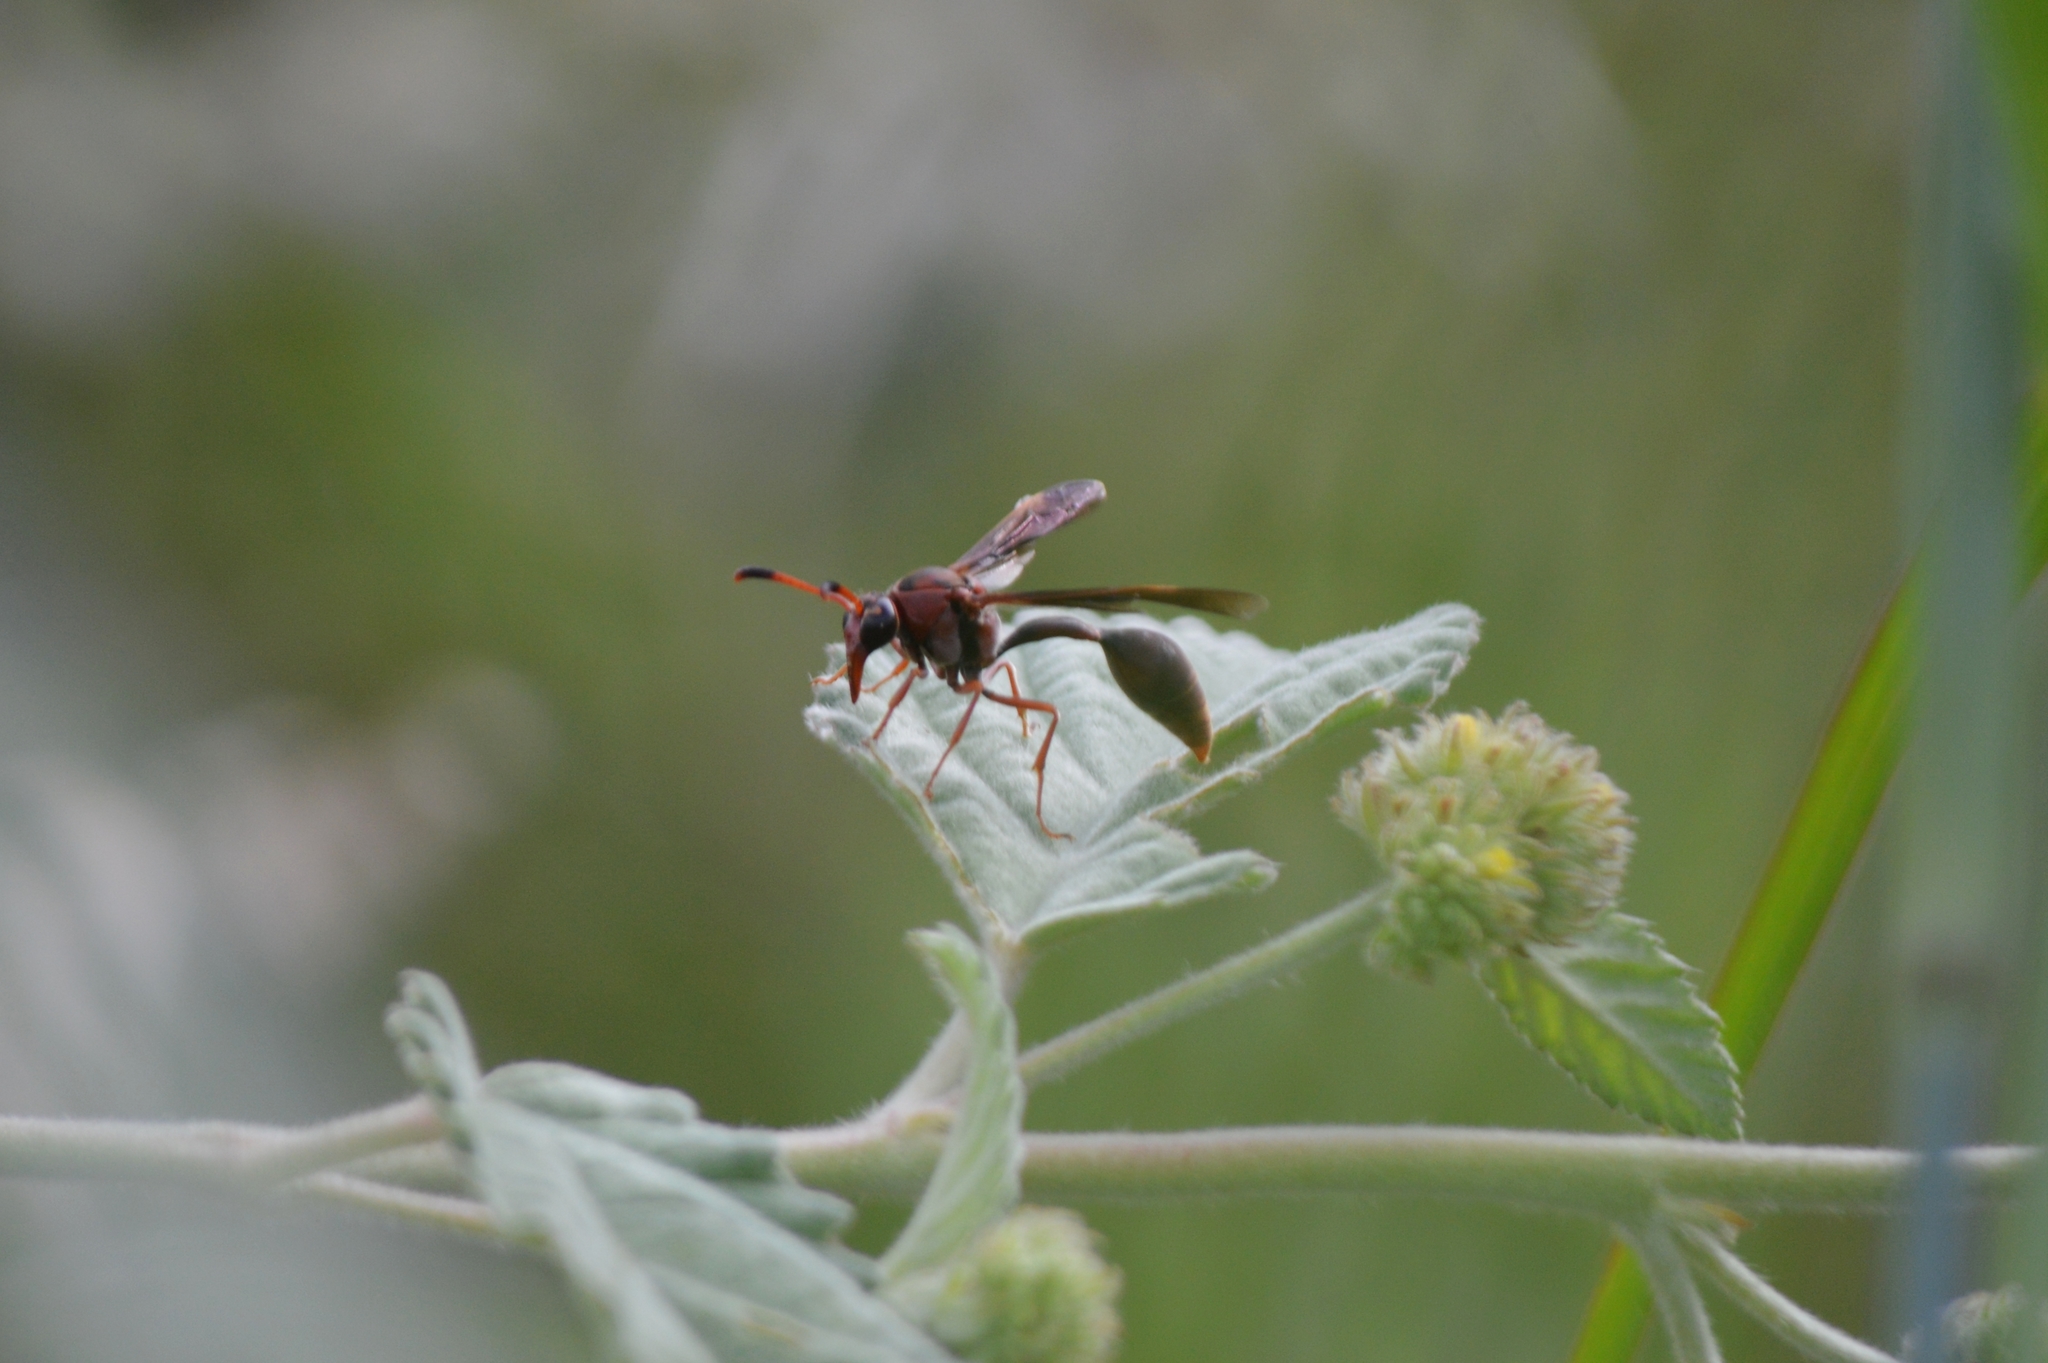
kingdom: Animalia
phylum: Arthropoda
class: Insecta
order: Hymenoptera
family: Eumenidae
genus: Zeta
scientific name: Zeta argillaceum
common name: Potter wasp
